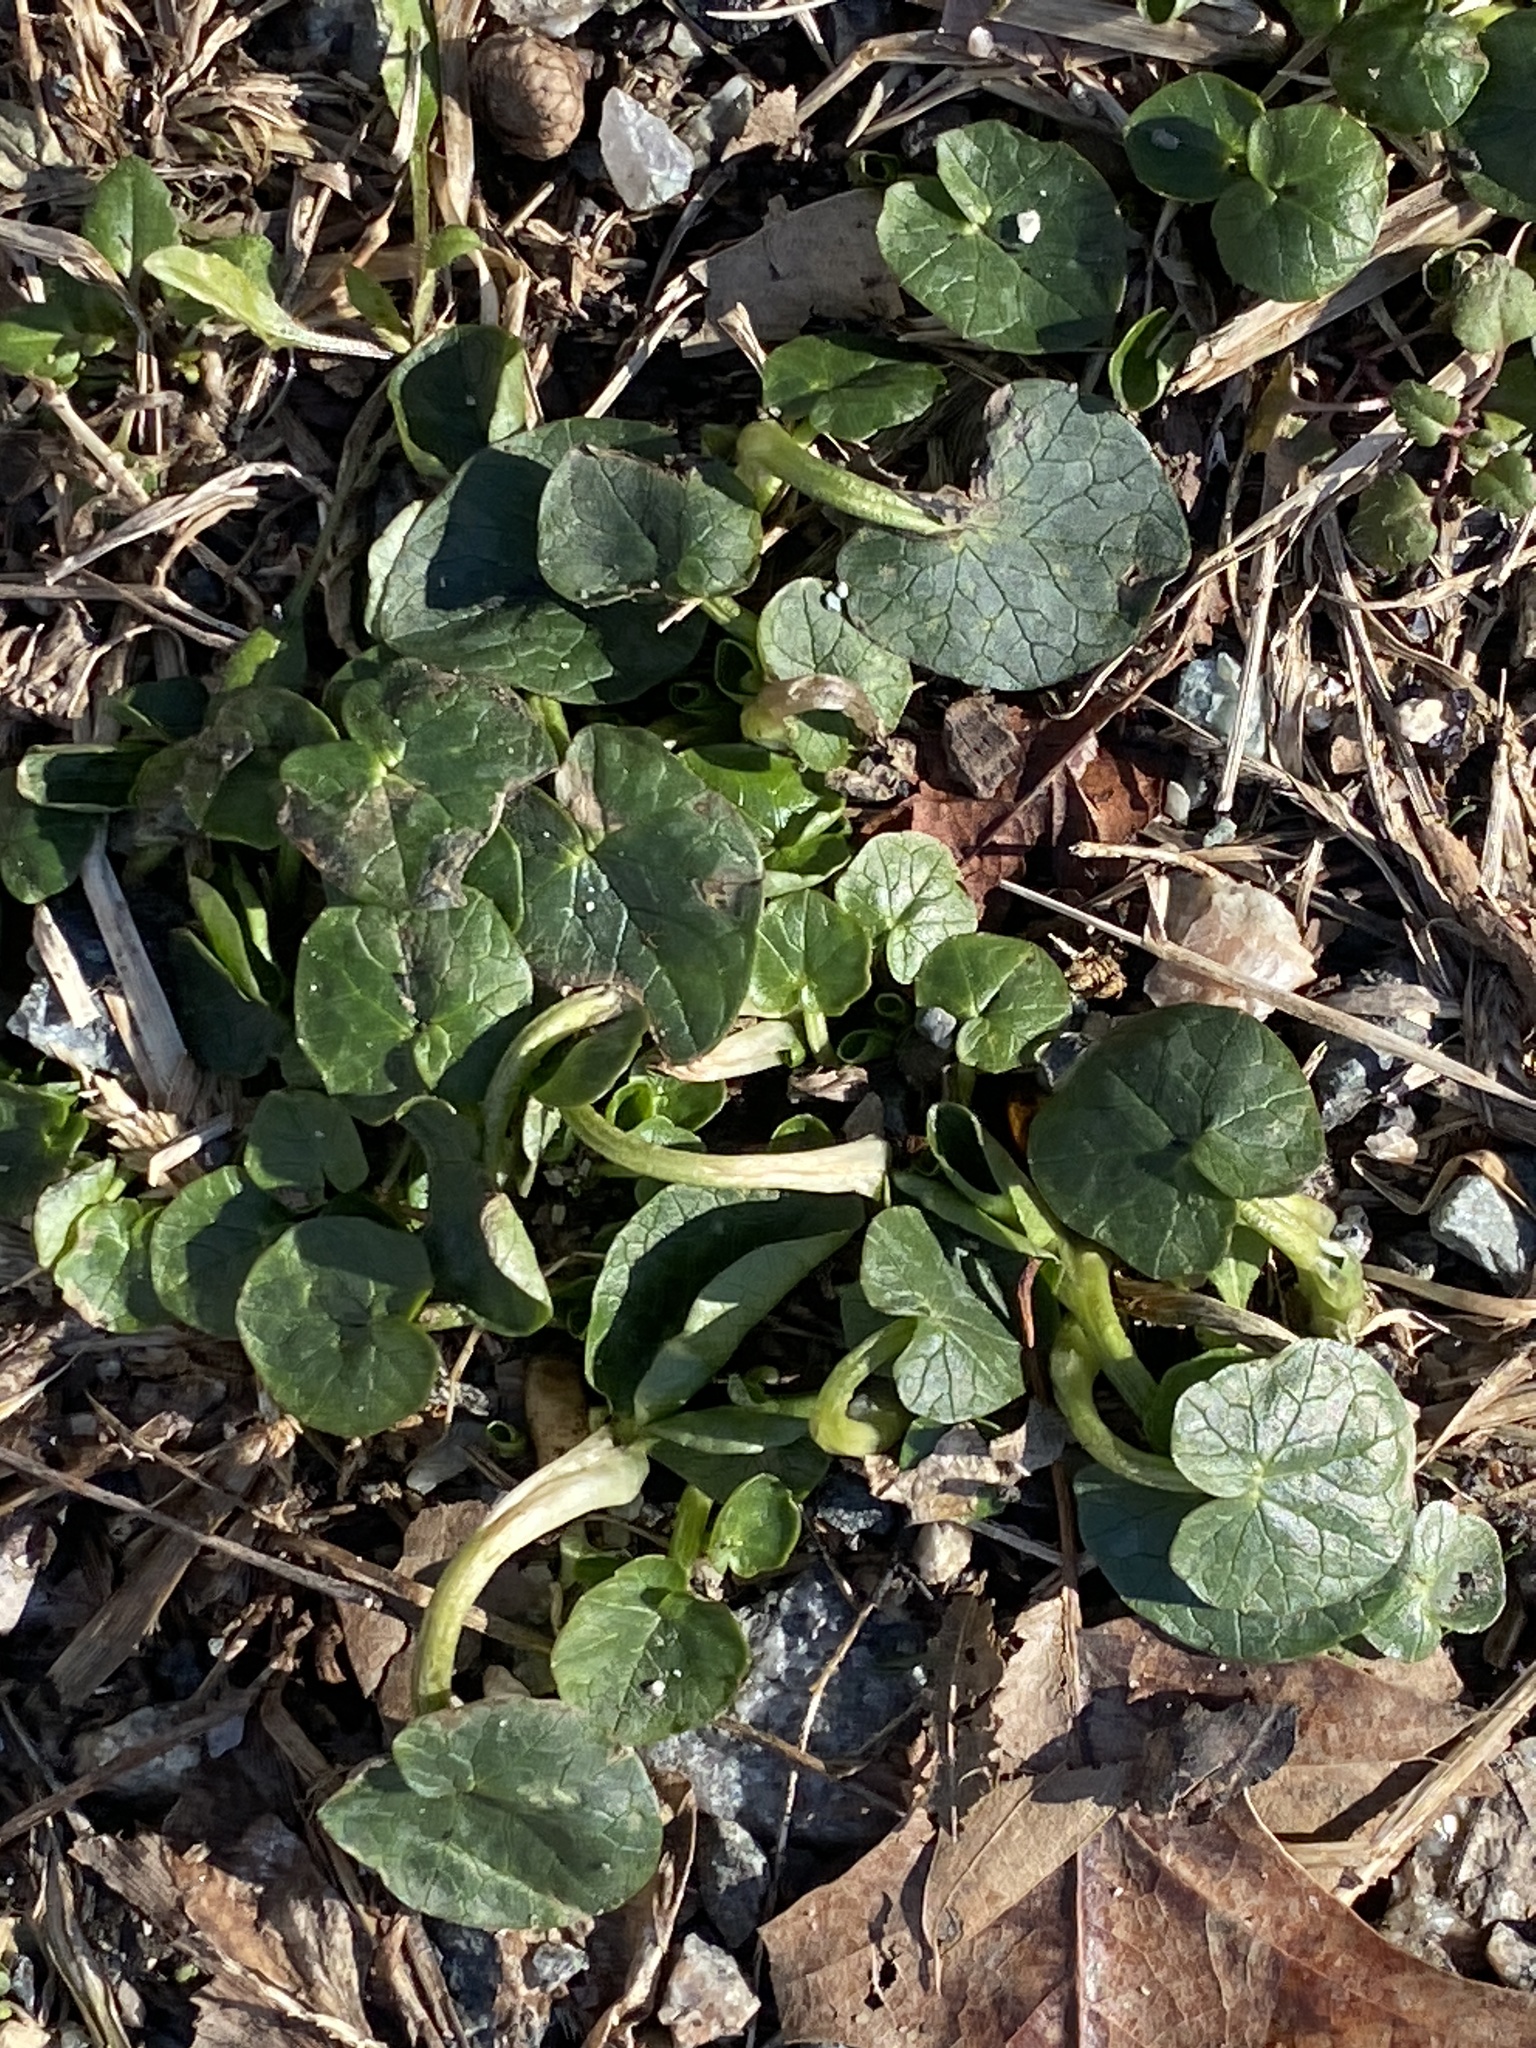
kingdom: Plantae
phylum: Tracheophyta
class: Magnoliopsida
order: Ranunculales
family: Ranunculaceae
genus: Ficaria
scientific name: Ficaria verna
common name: Lesser celandine
